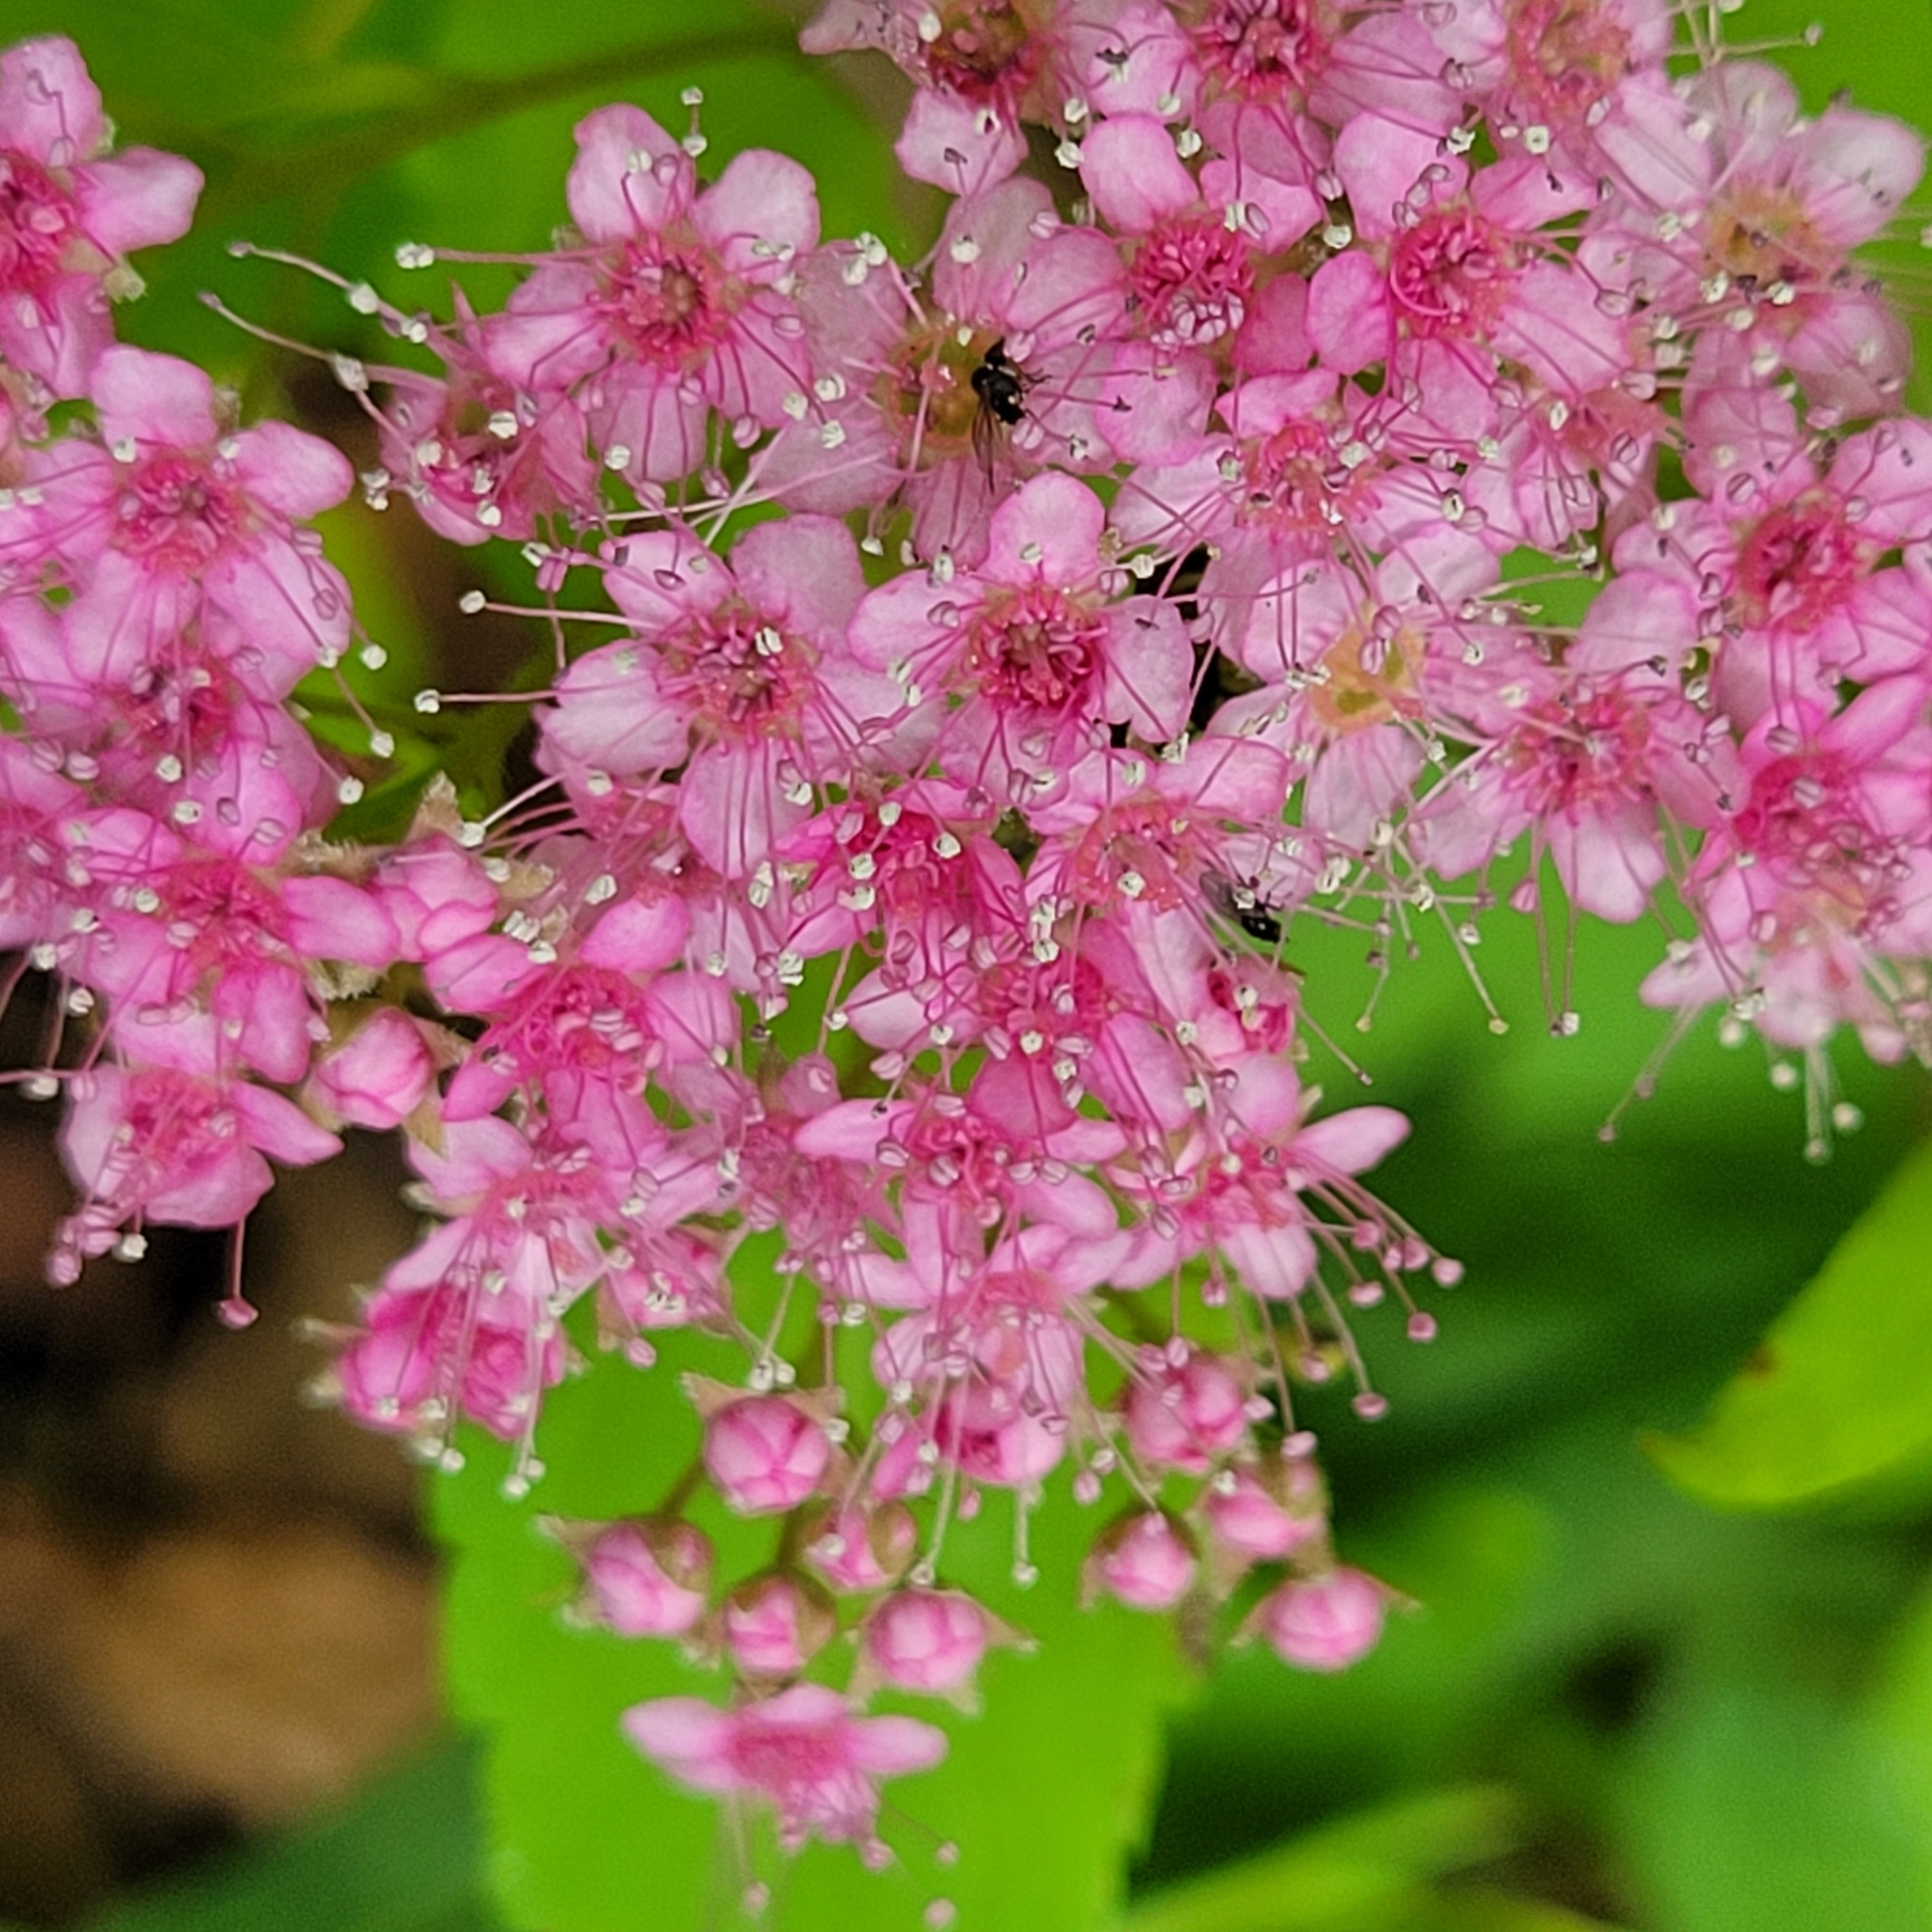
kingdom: Plantae
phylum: Tracheophyta
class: Magnoliopsida
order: Rosales
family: Rosaceae
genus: Spiraea
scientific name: Spiraea japonica
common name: Japanese spiraea
